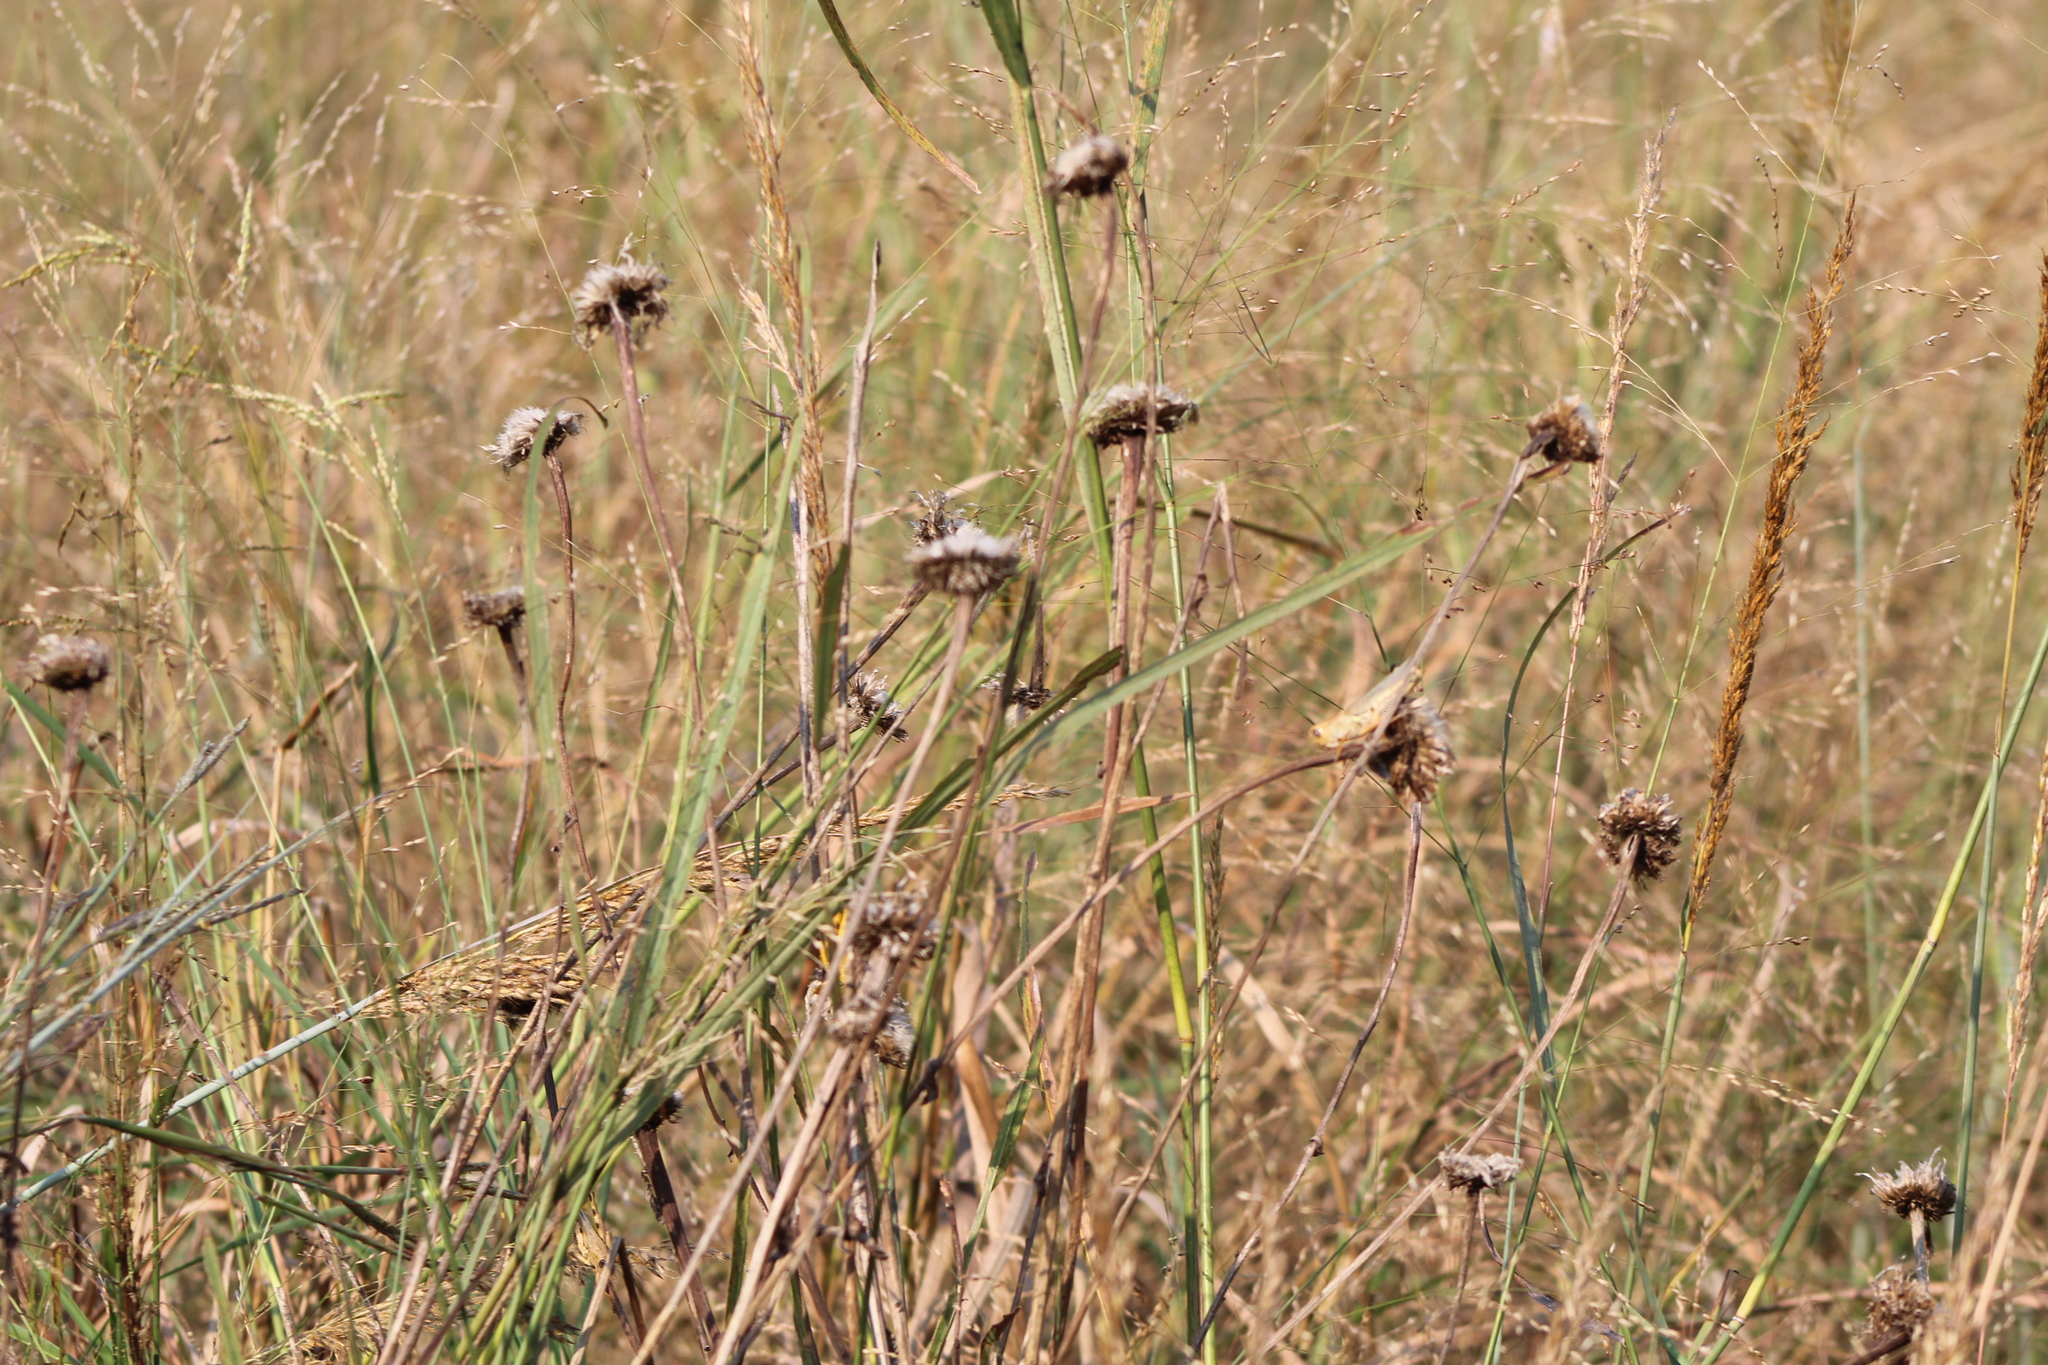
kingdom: Plantae
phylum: Tracheophyta
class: Magnoliopsida
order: Asterales
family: Asteraceae
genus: Plectocephalus
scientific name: Plectocephalus americanus
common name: American basket-flower
